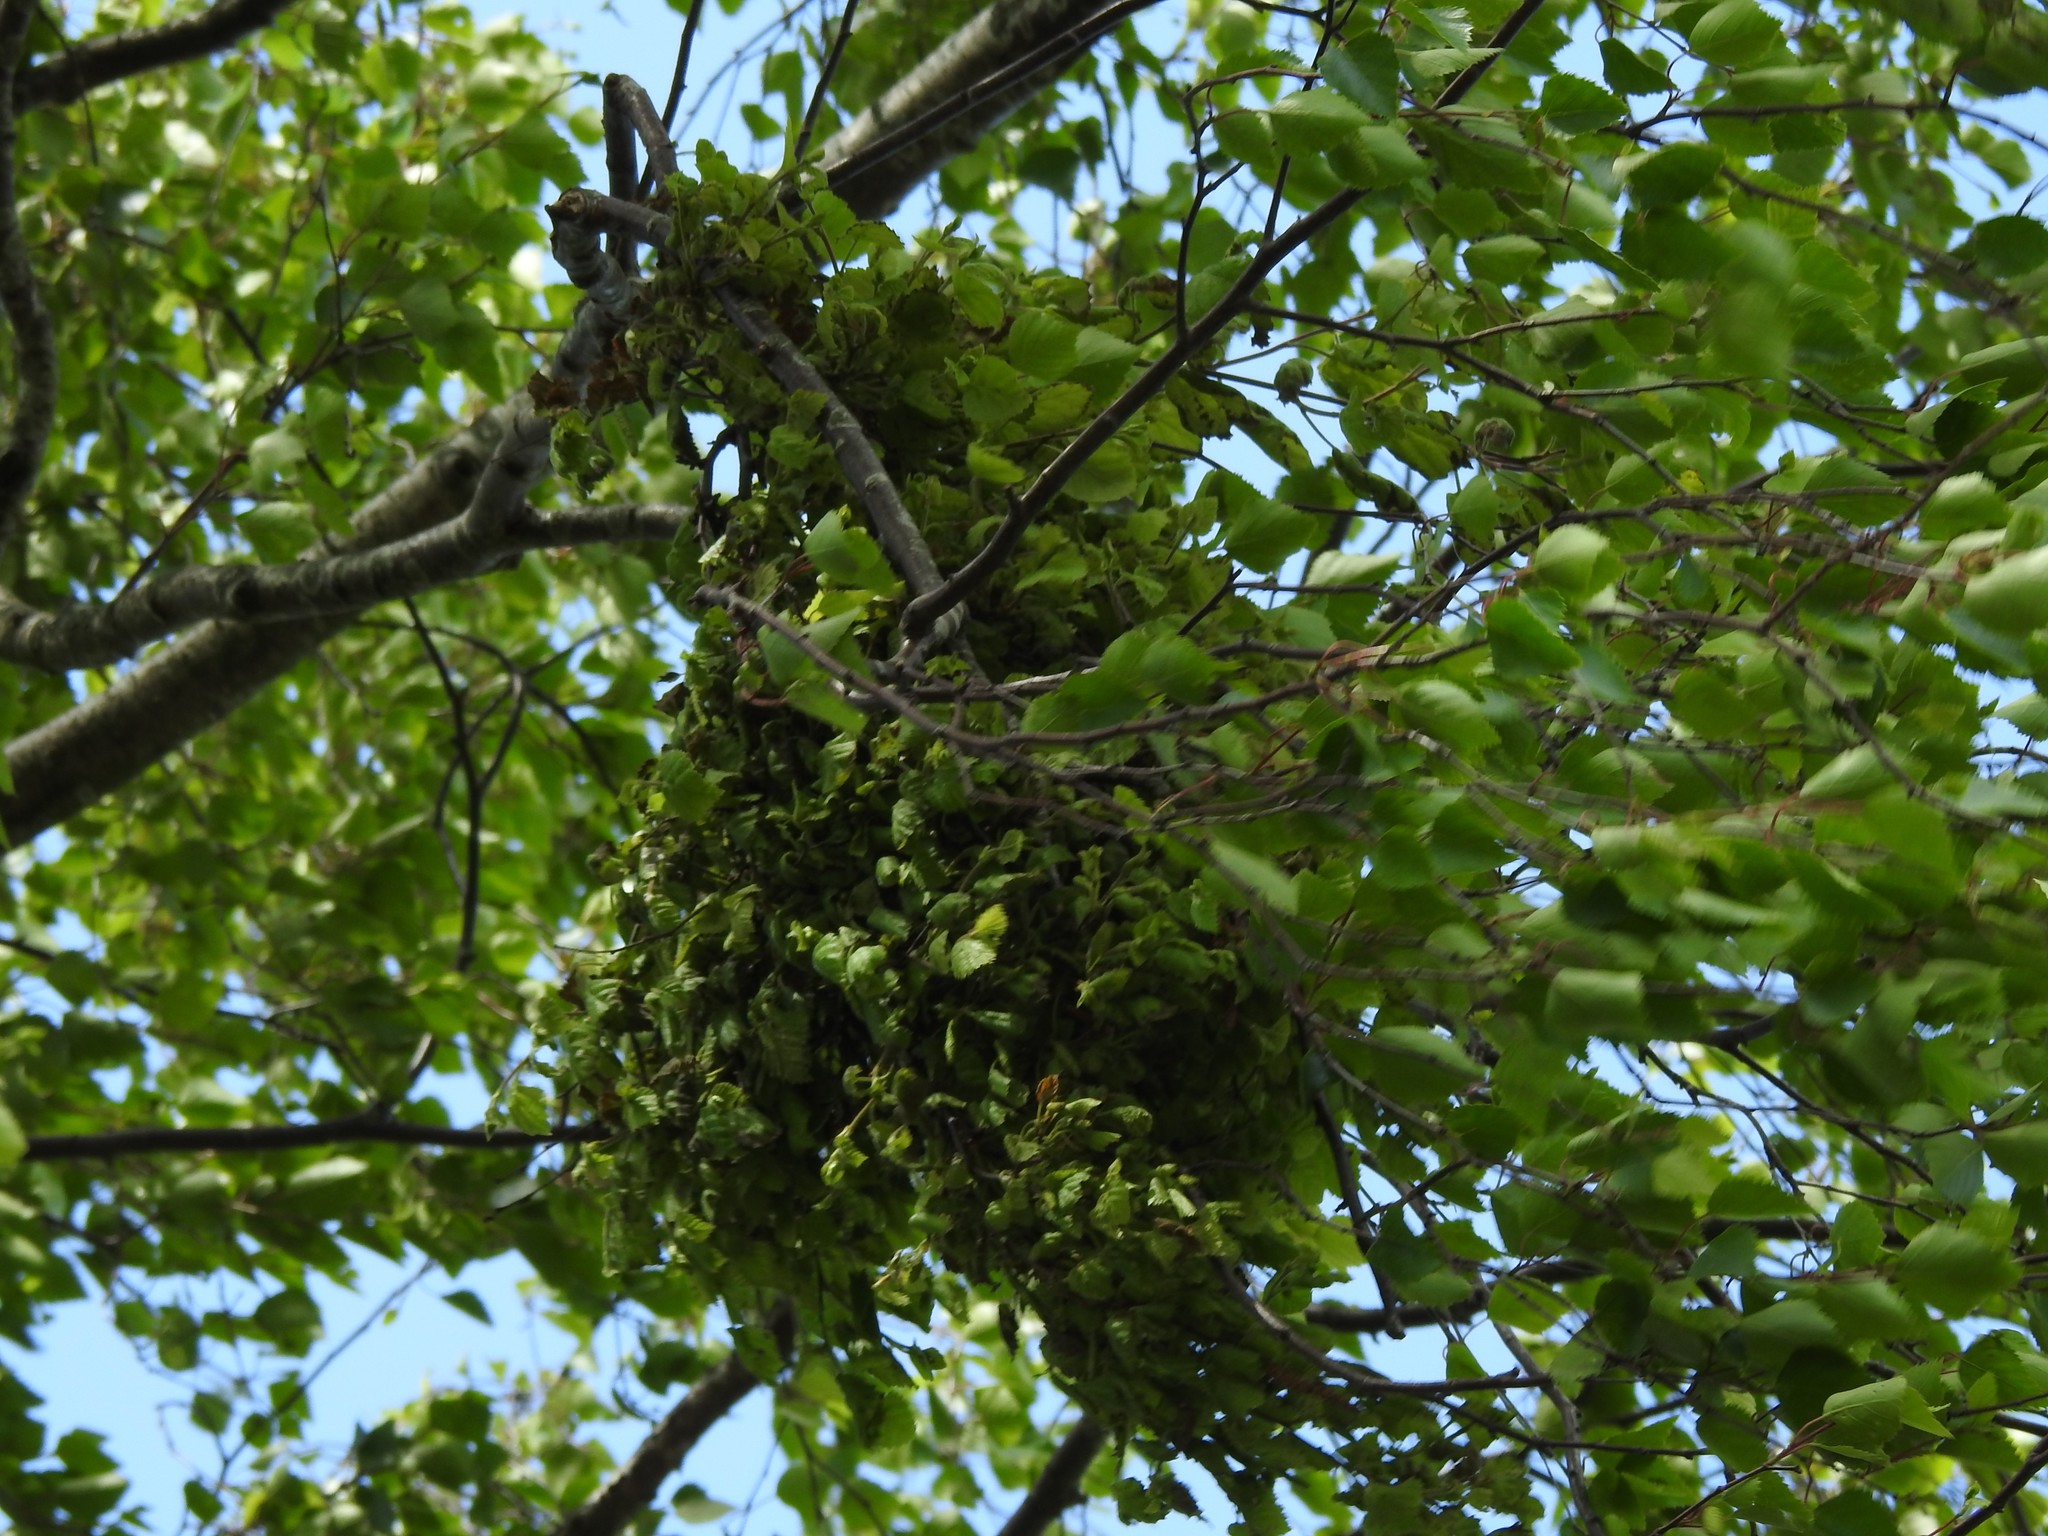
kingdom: Fungi
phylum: Ascomycota
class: Taphrinomycetes
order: Taphrinales
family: Taphrinaceae
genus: Taphrina
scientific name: Taphrina betulina
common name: Birch besom
